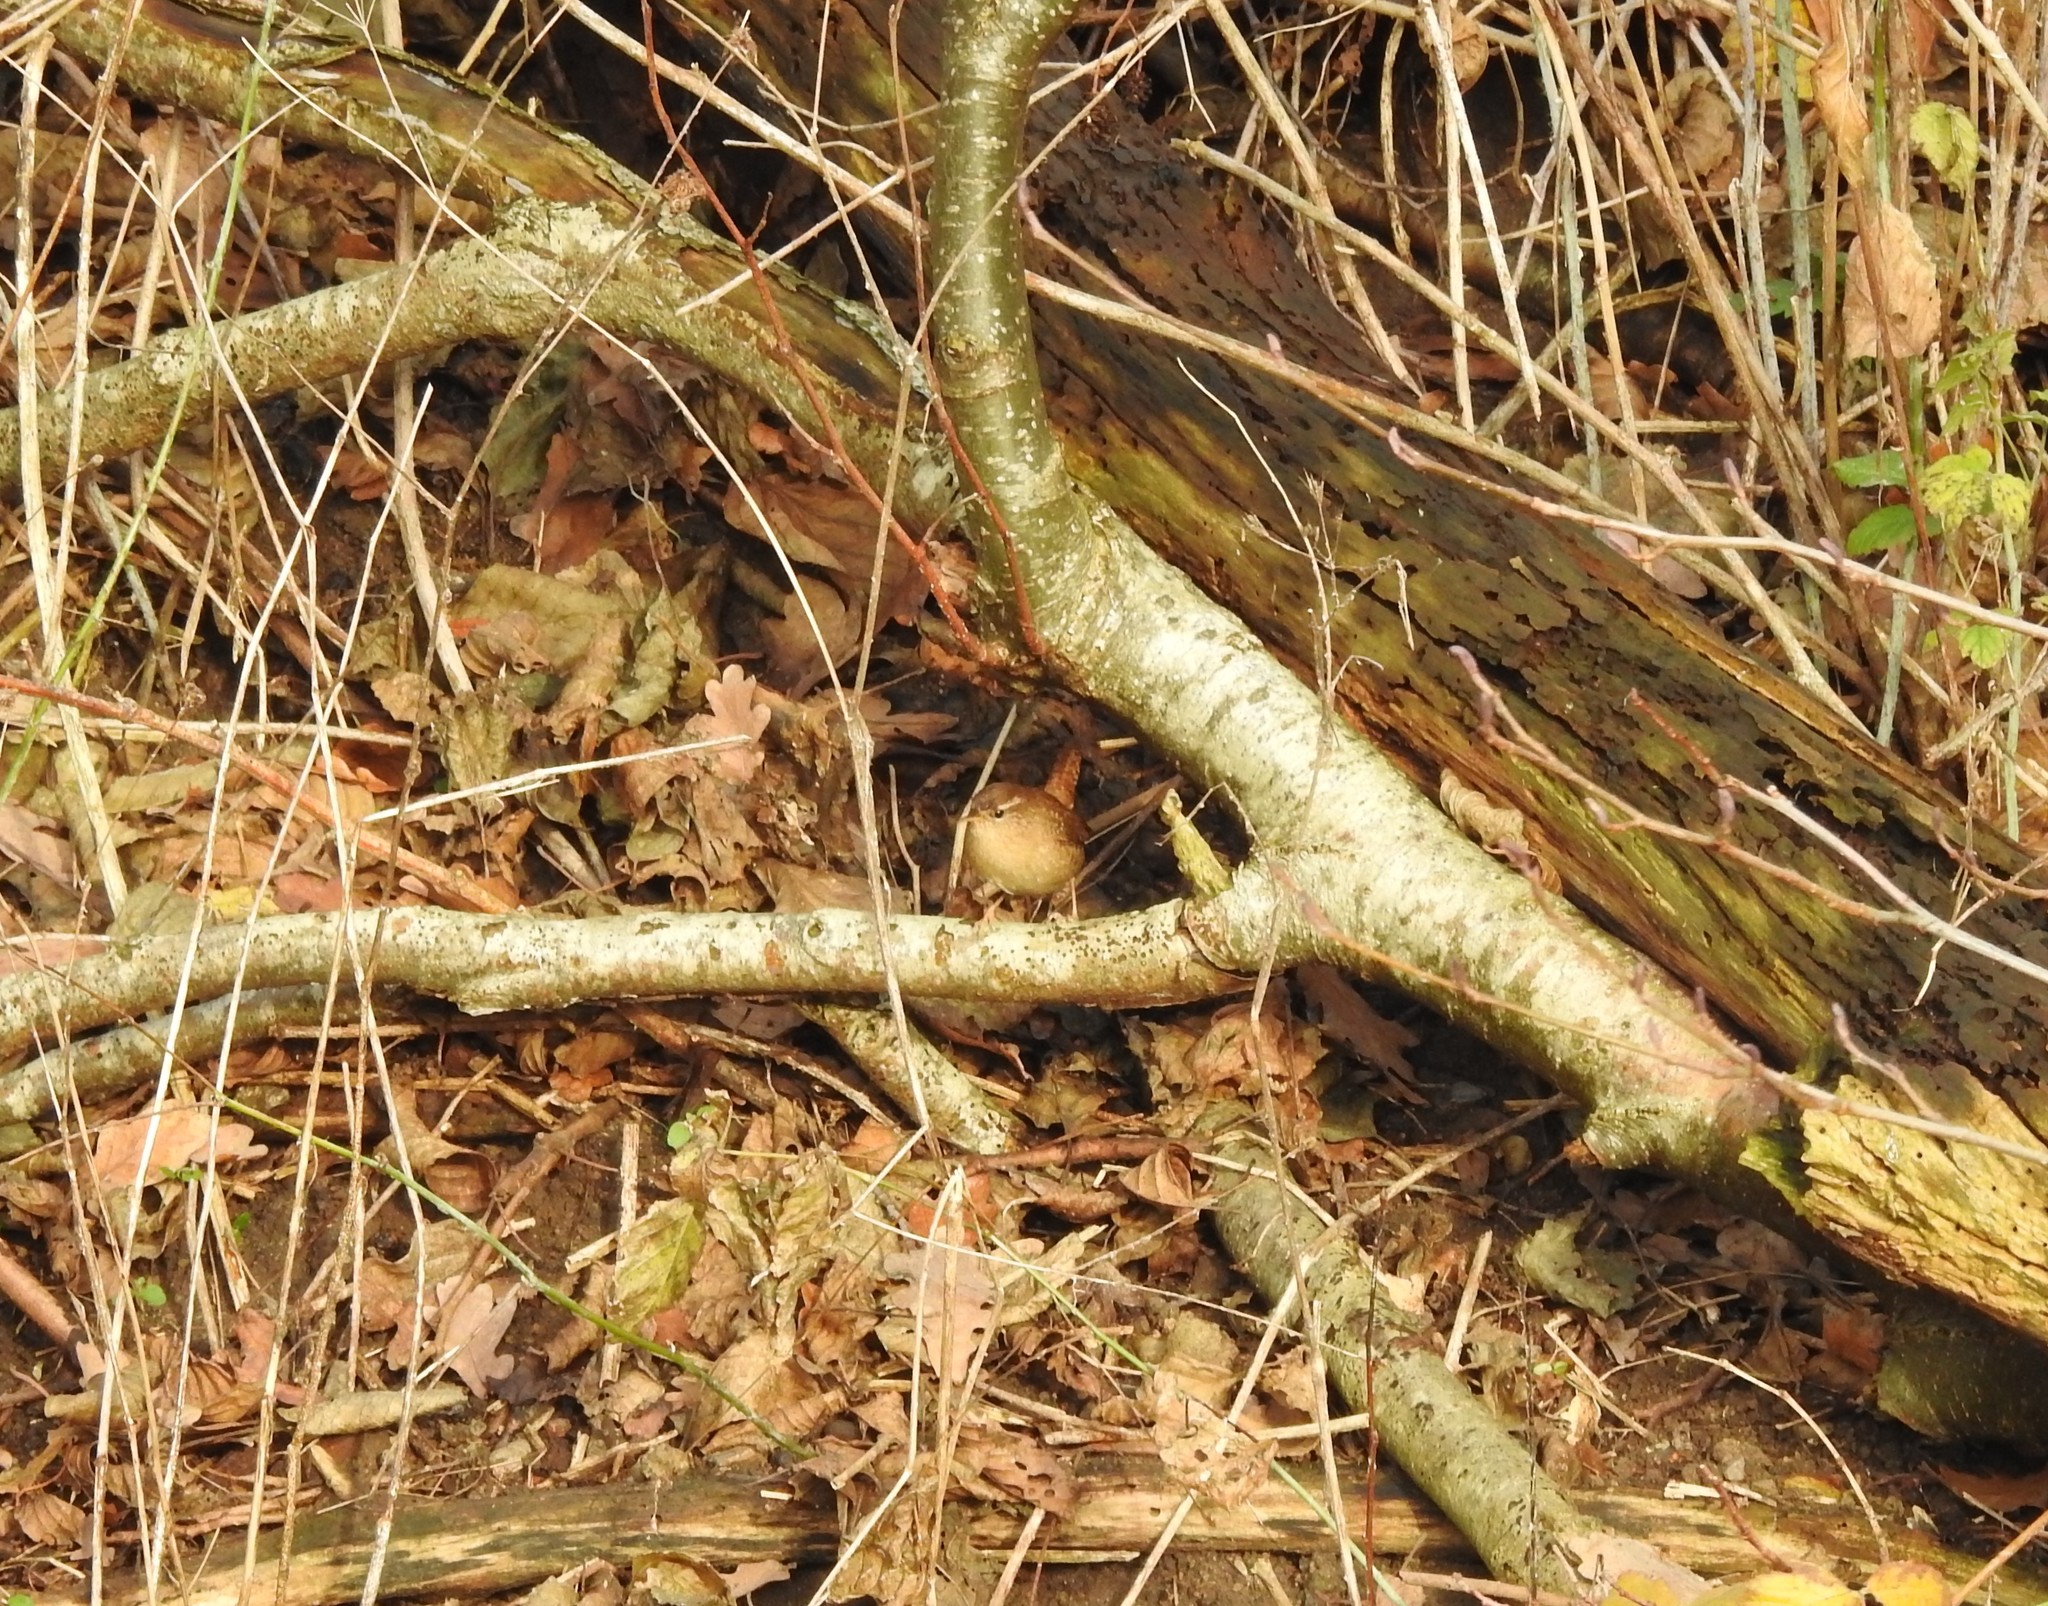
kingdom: Animalia
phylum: Chordata
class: Aves
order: Passeriformes
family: Troglodytidae
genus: Troglodytes
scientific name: Troglodytes troglodytes
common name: Eurasian wren
